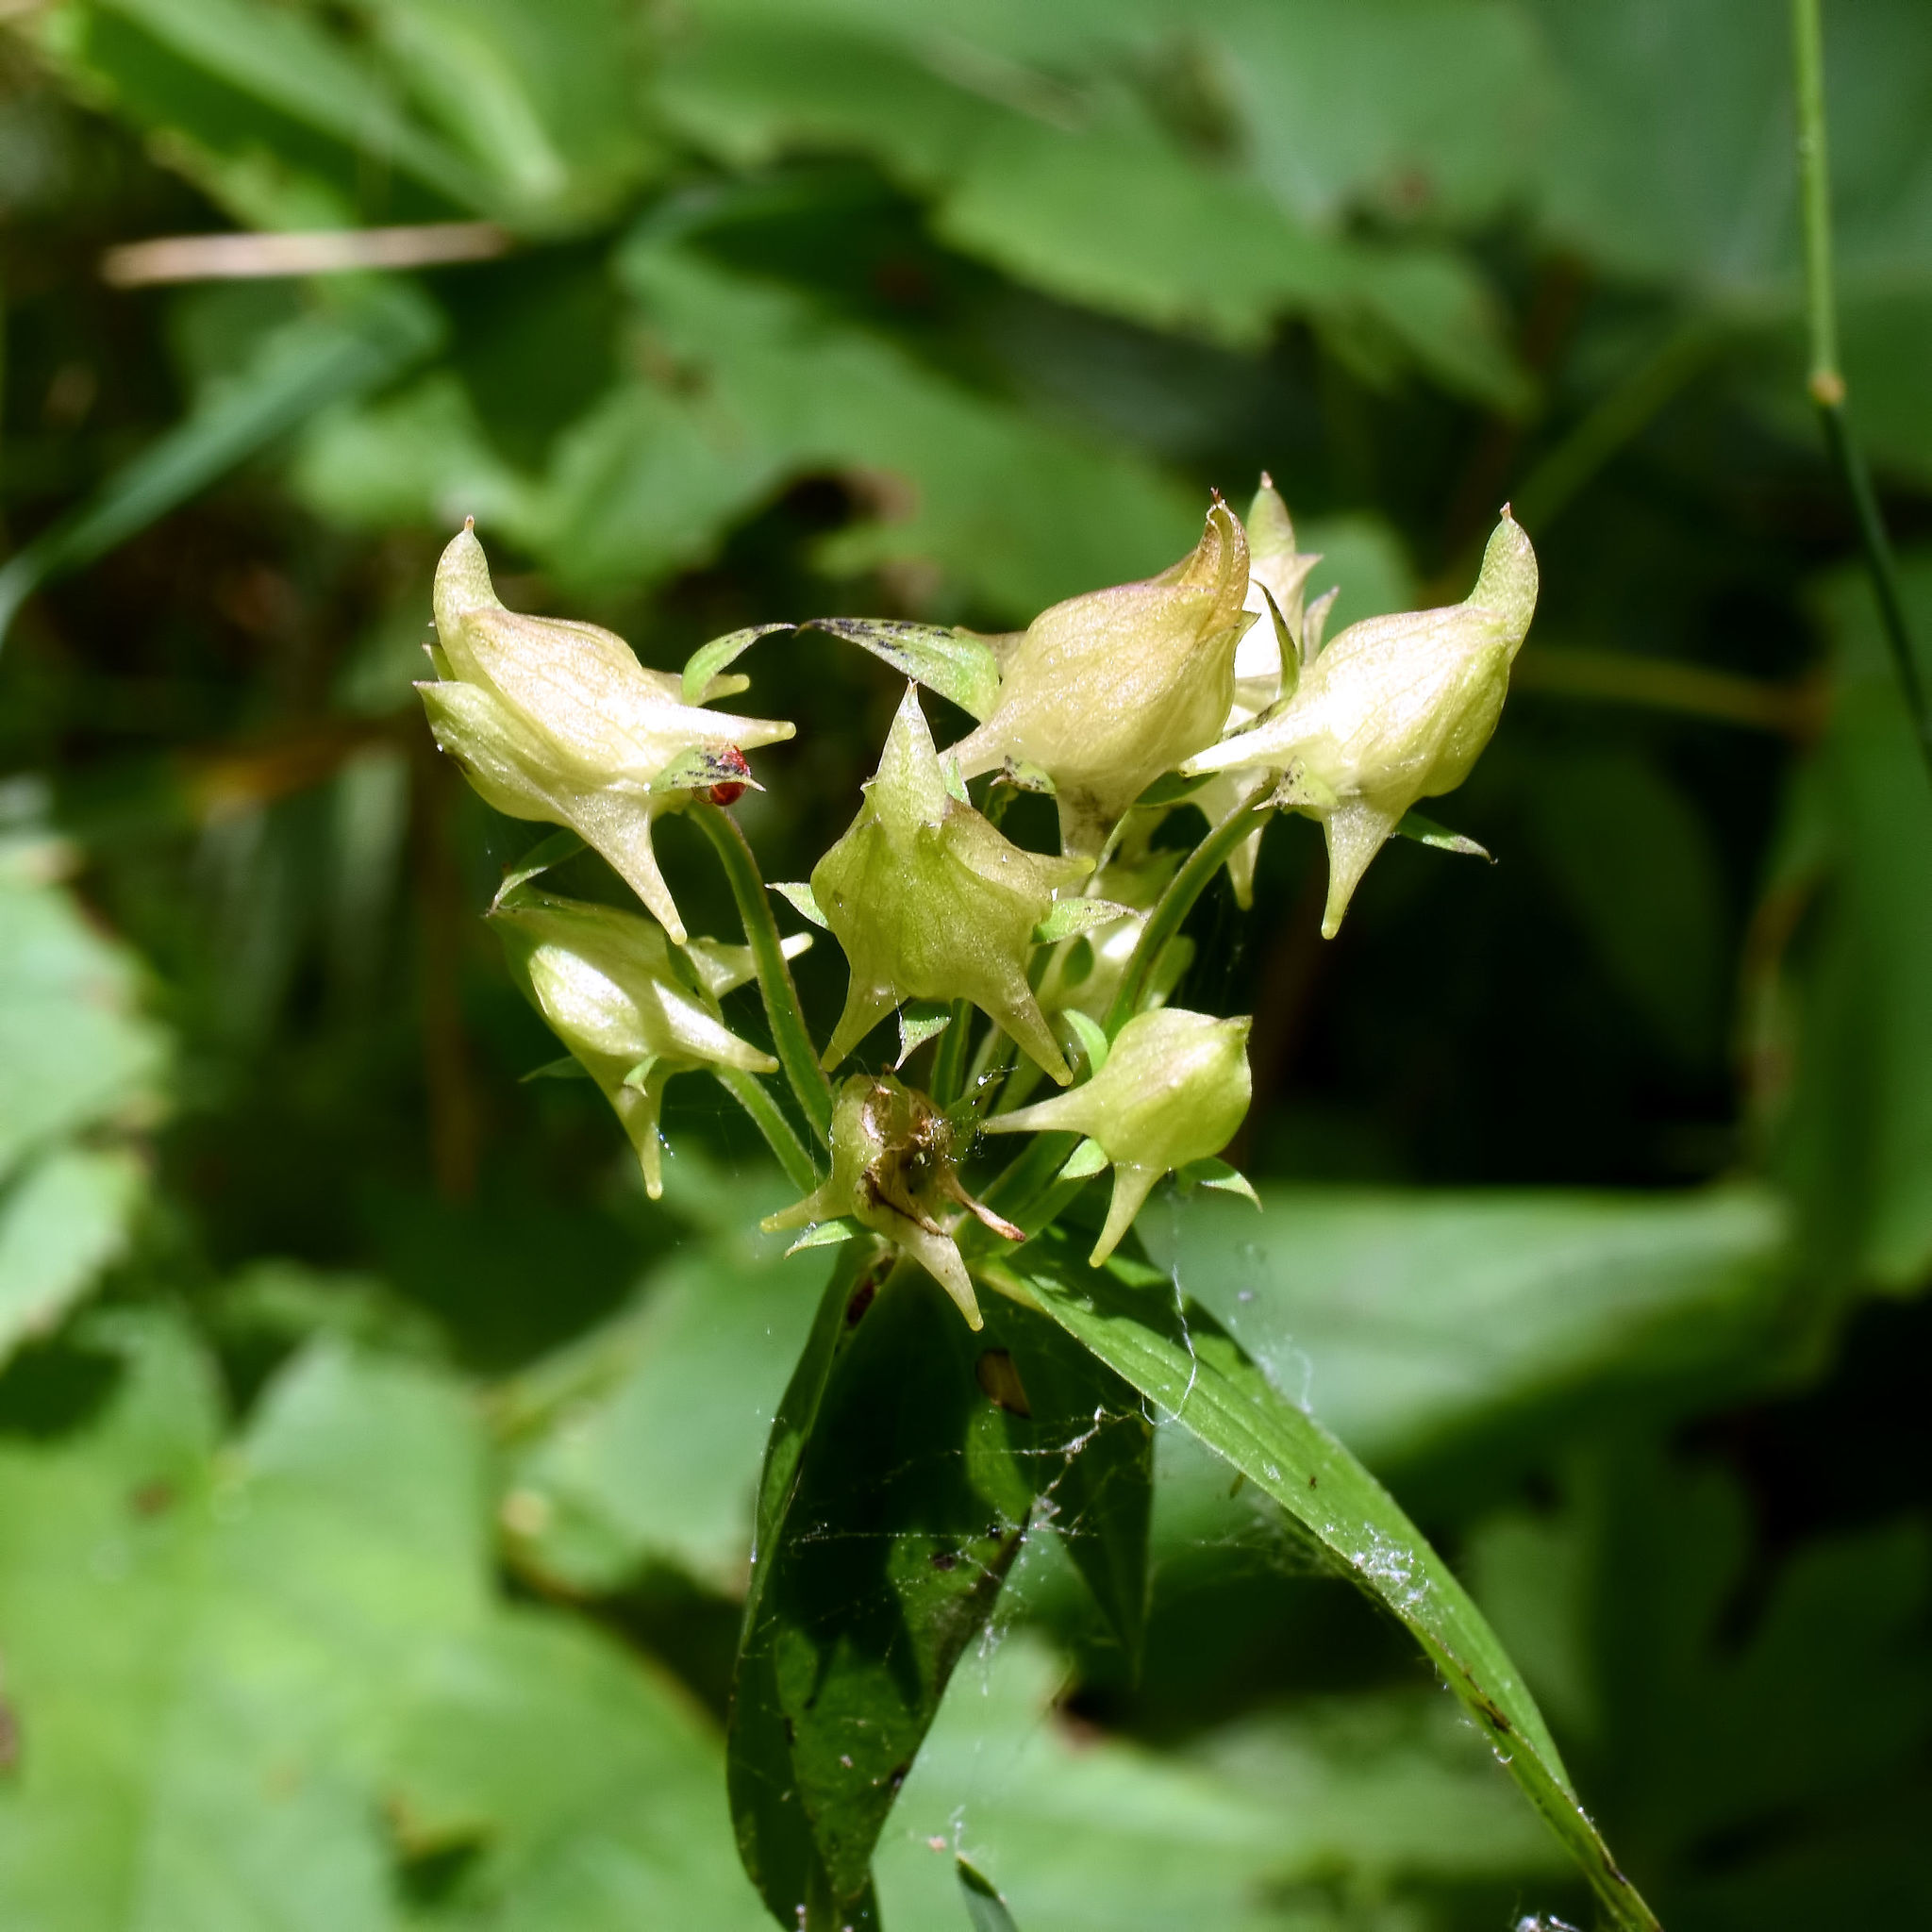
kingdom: Plantae
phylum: Tracheophyta
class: Magnoliopsida
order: Gentianales
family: Gentianaceae
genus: Halenia
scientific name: Halenia deflexa
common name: American spurred gentian
